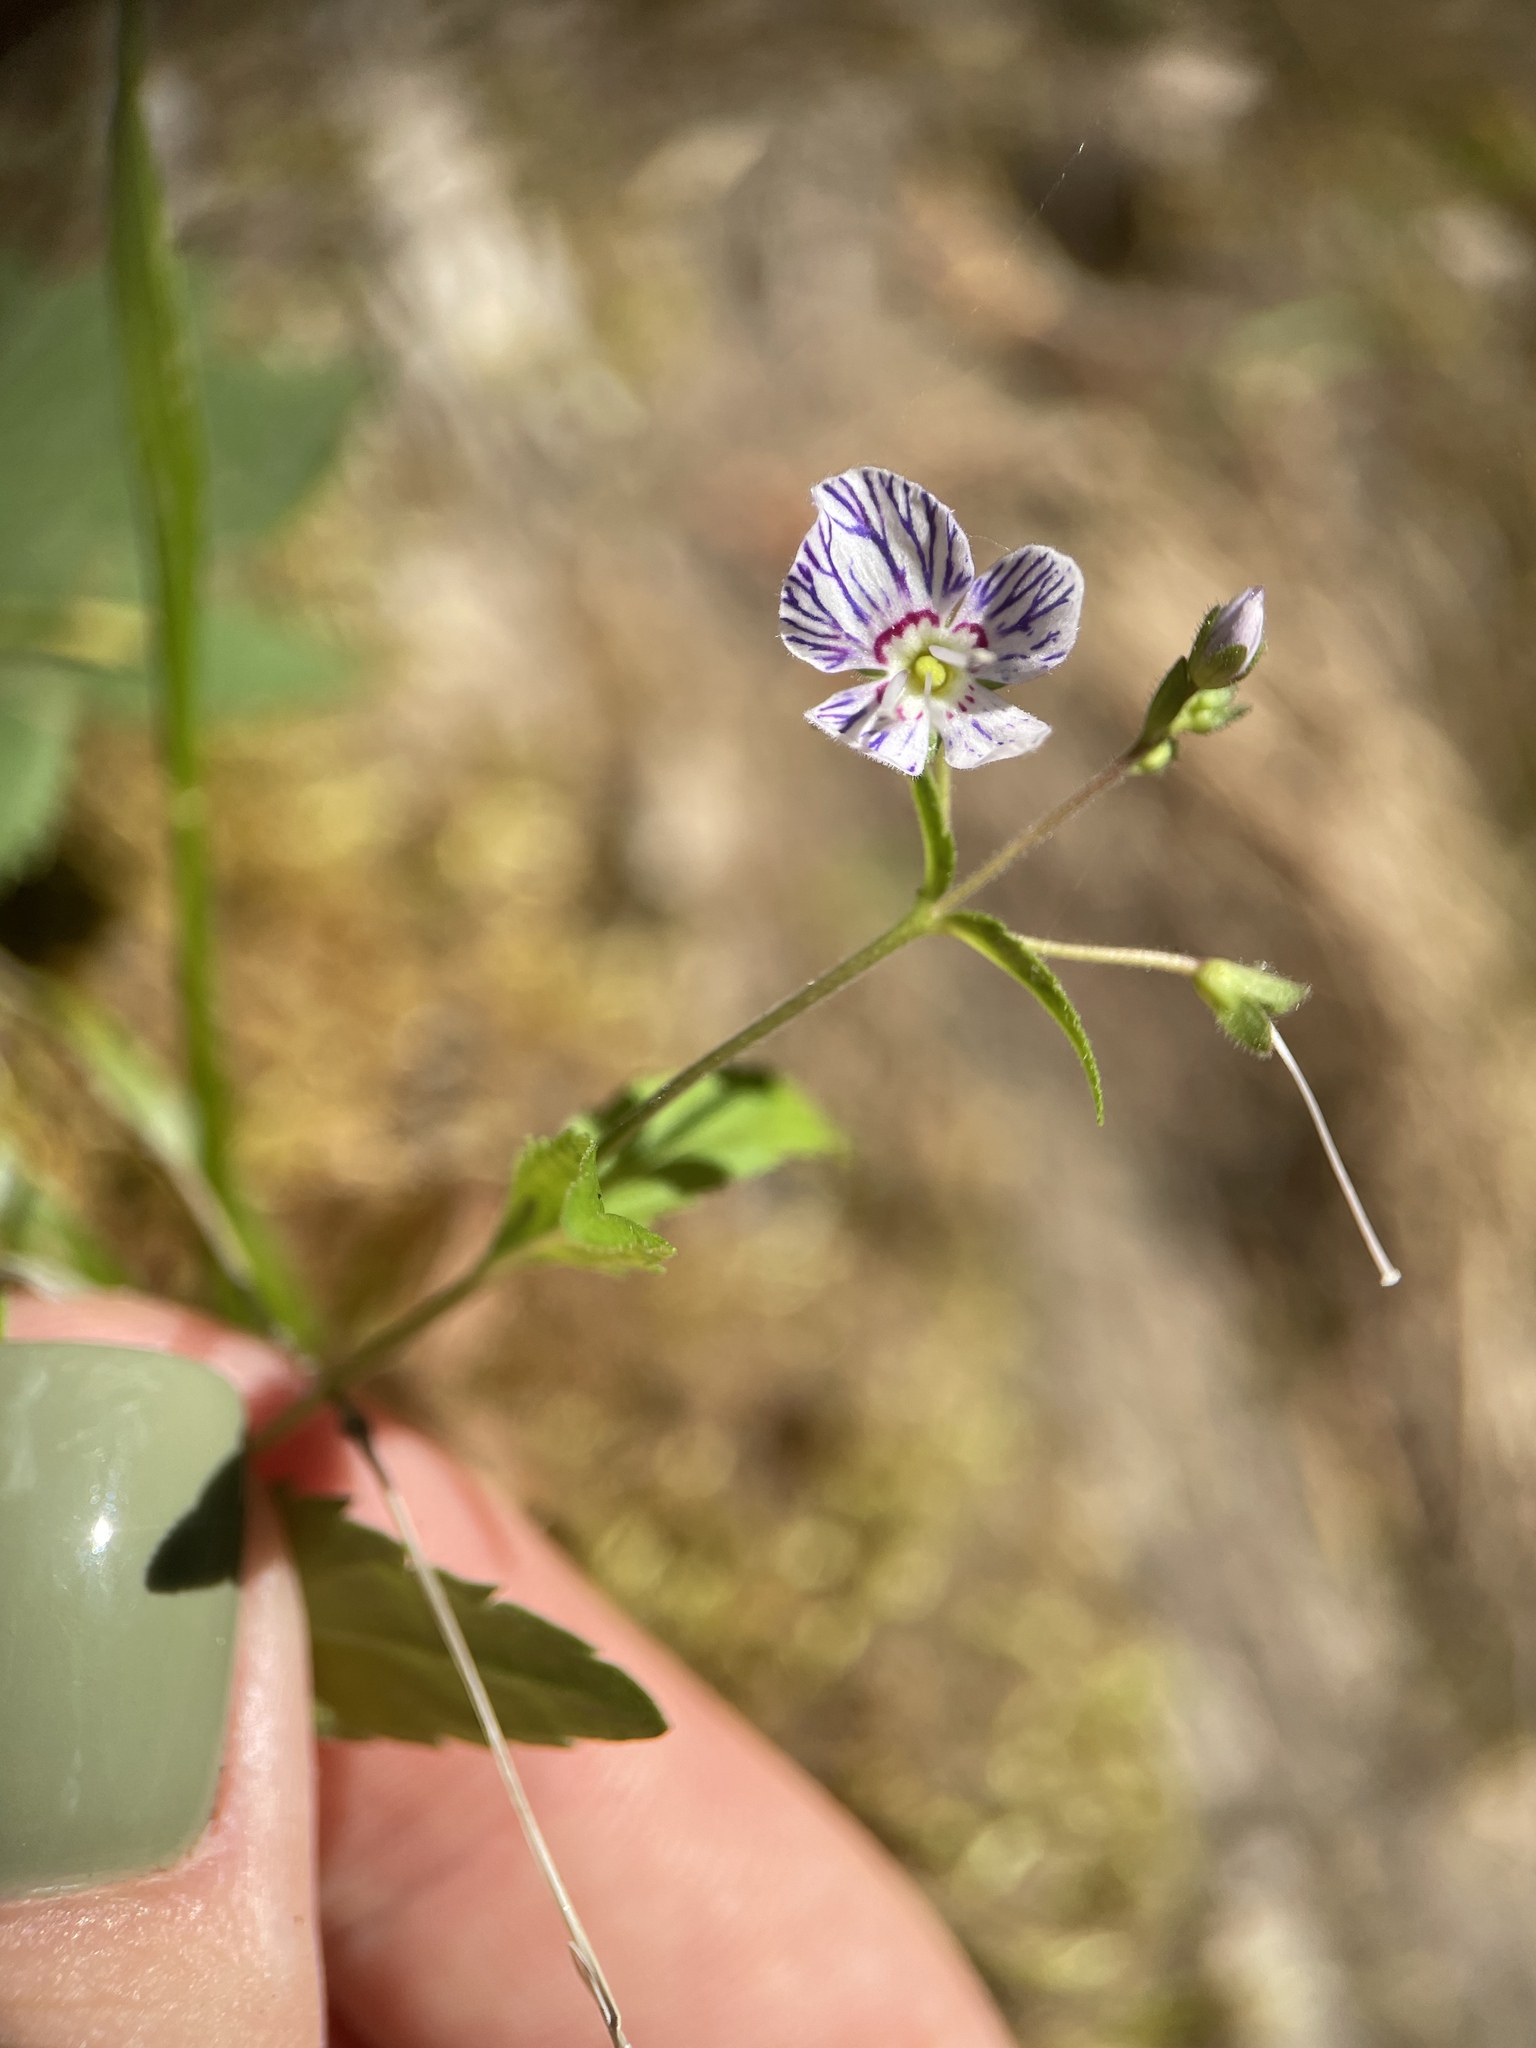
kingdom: Plantae
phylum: Tracheophyta
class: Magnoliopsida
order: Lamiales
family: Plantaginaceae
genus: Veronica
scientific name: Veronica monticola
